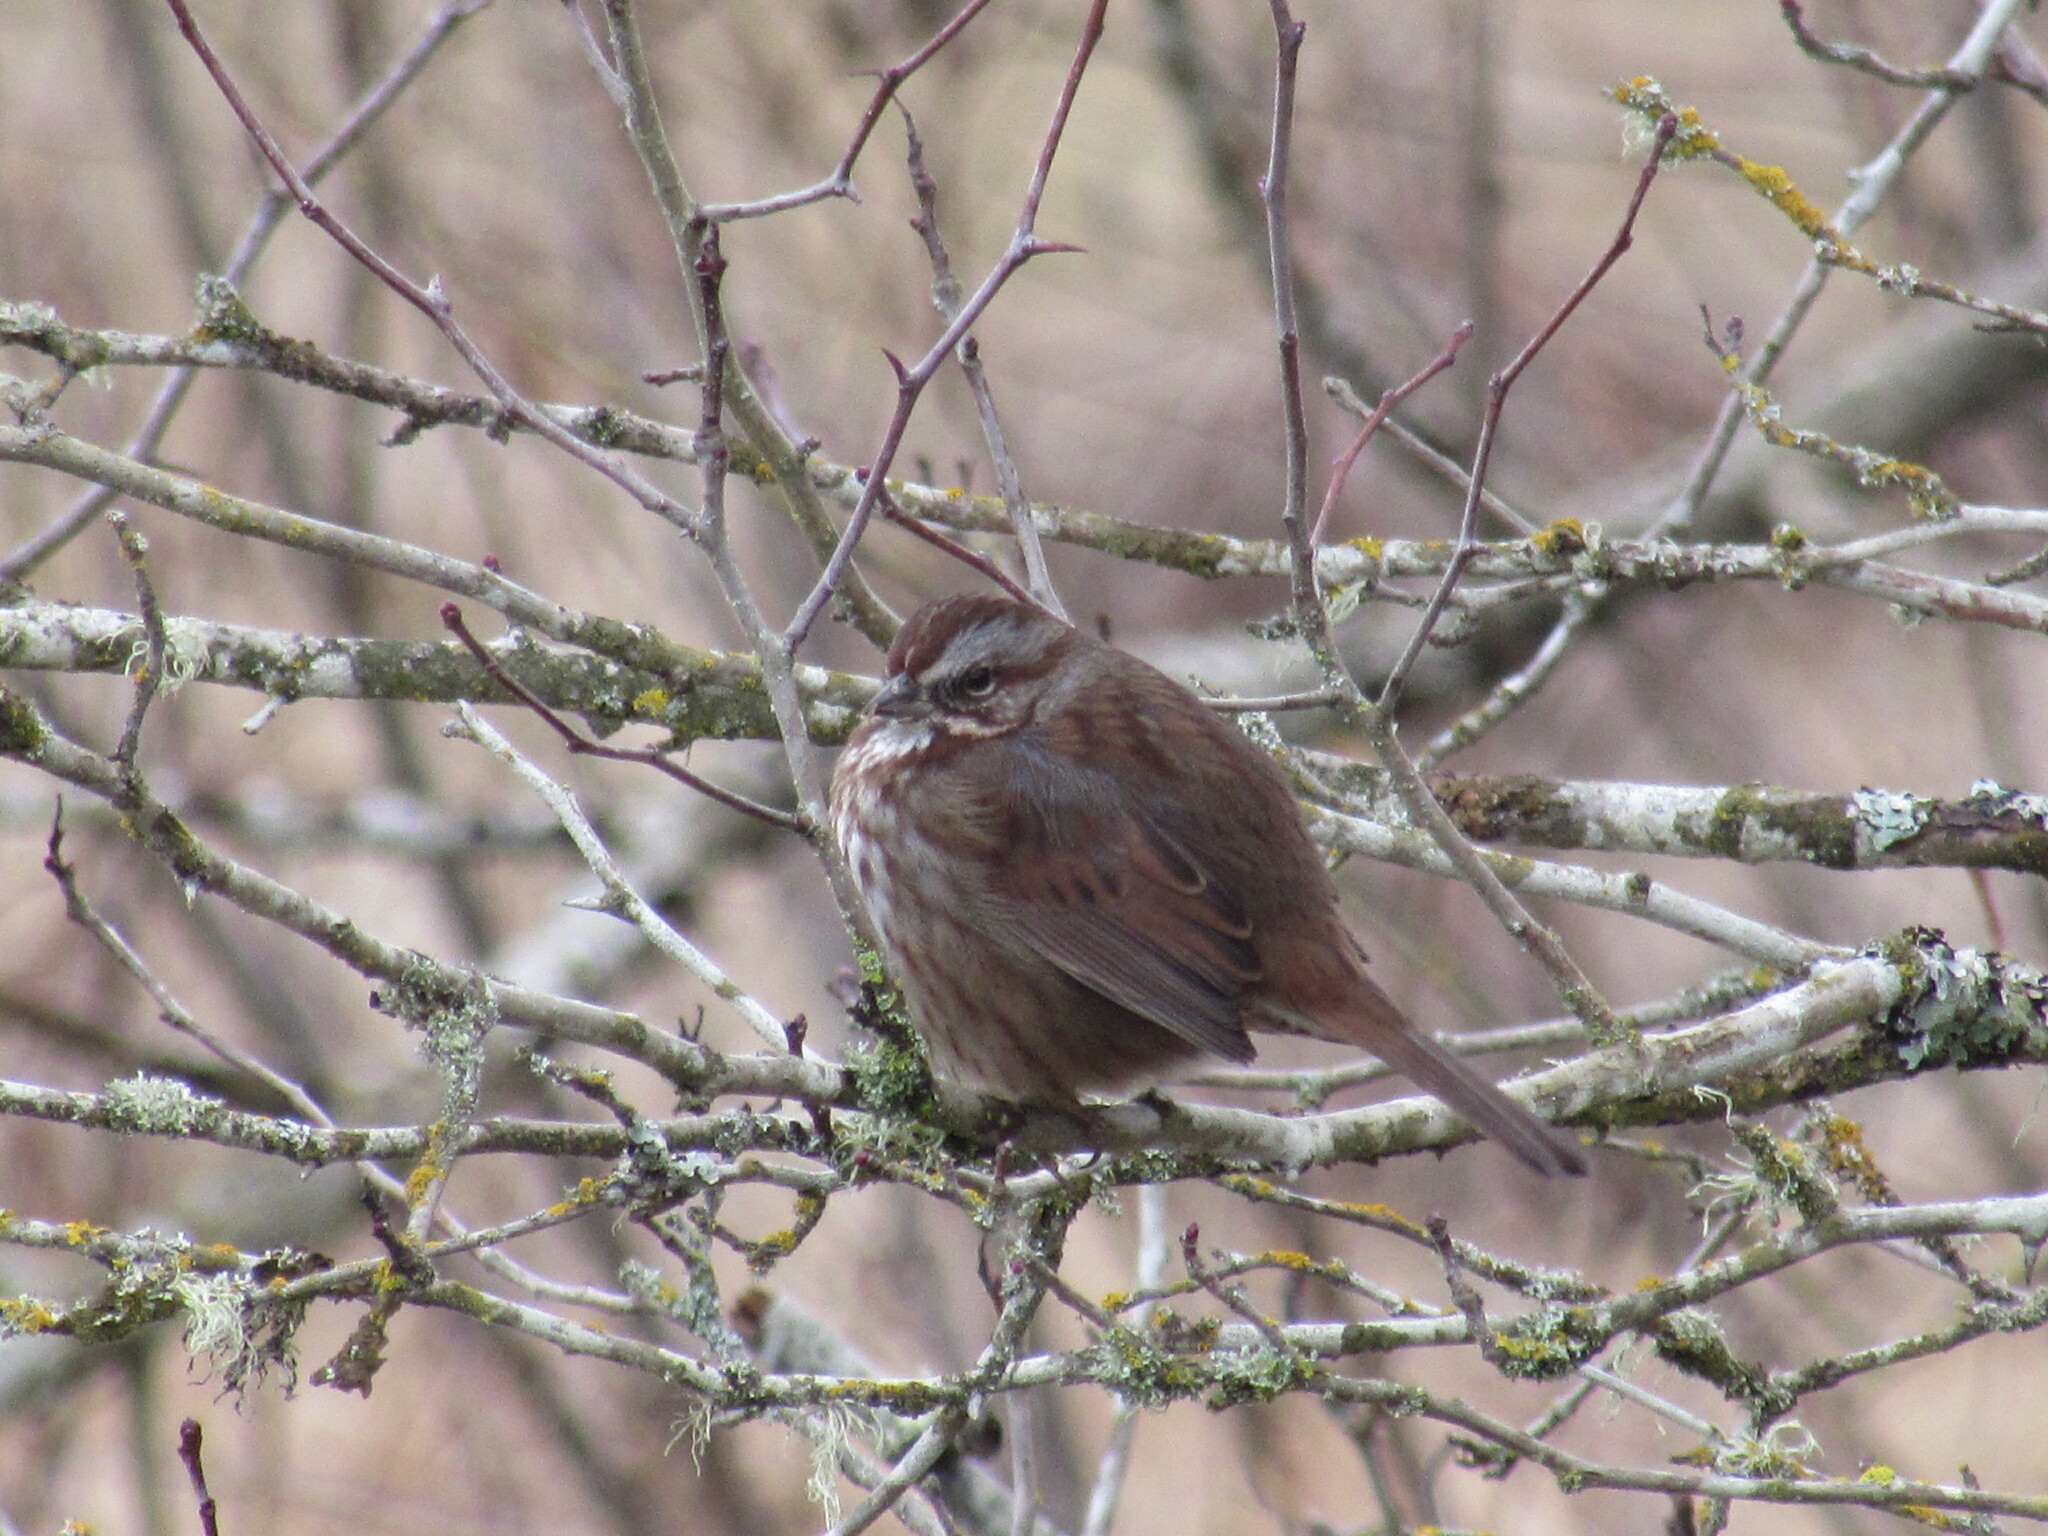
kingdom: Animalia
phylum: Chordata
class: Aves
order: Passeriformes
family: Passerellidae
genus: Melospiza
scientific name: Melospiza melodia
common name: Song sparrow
